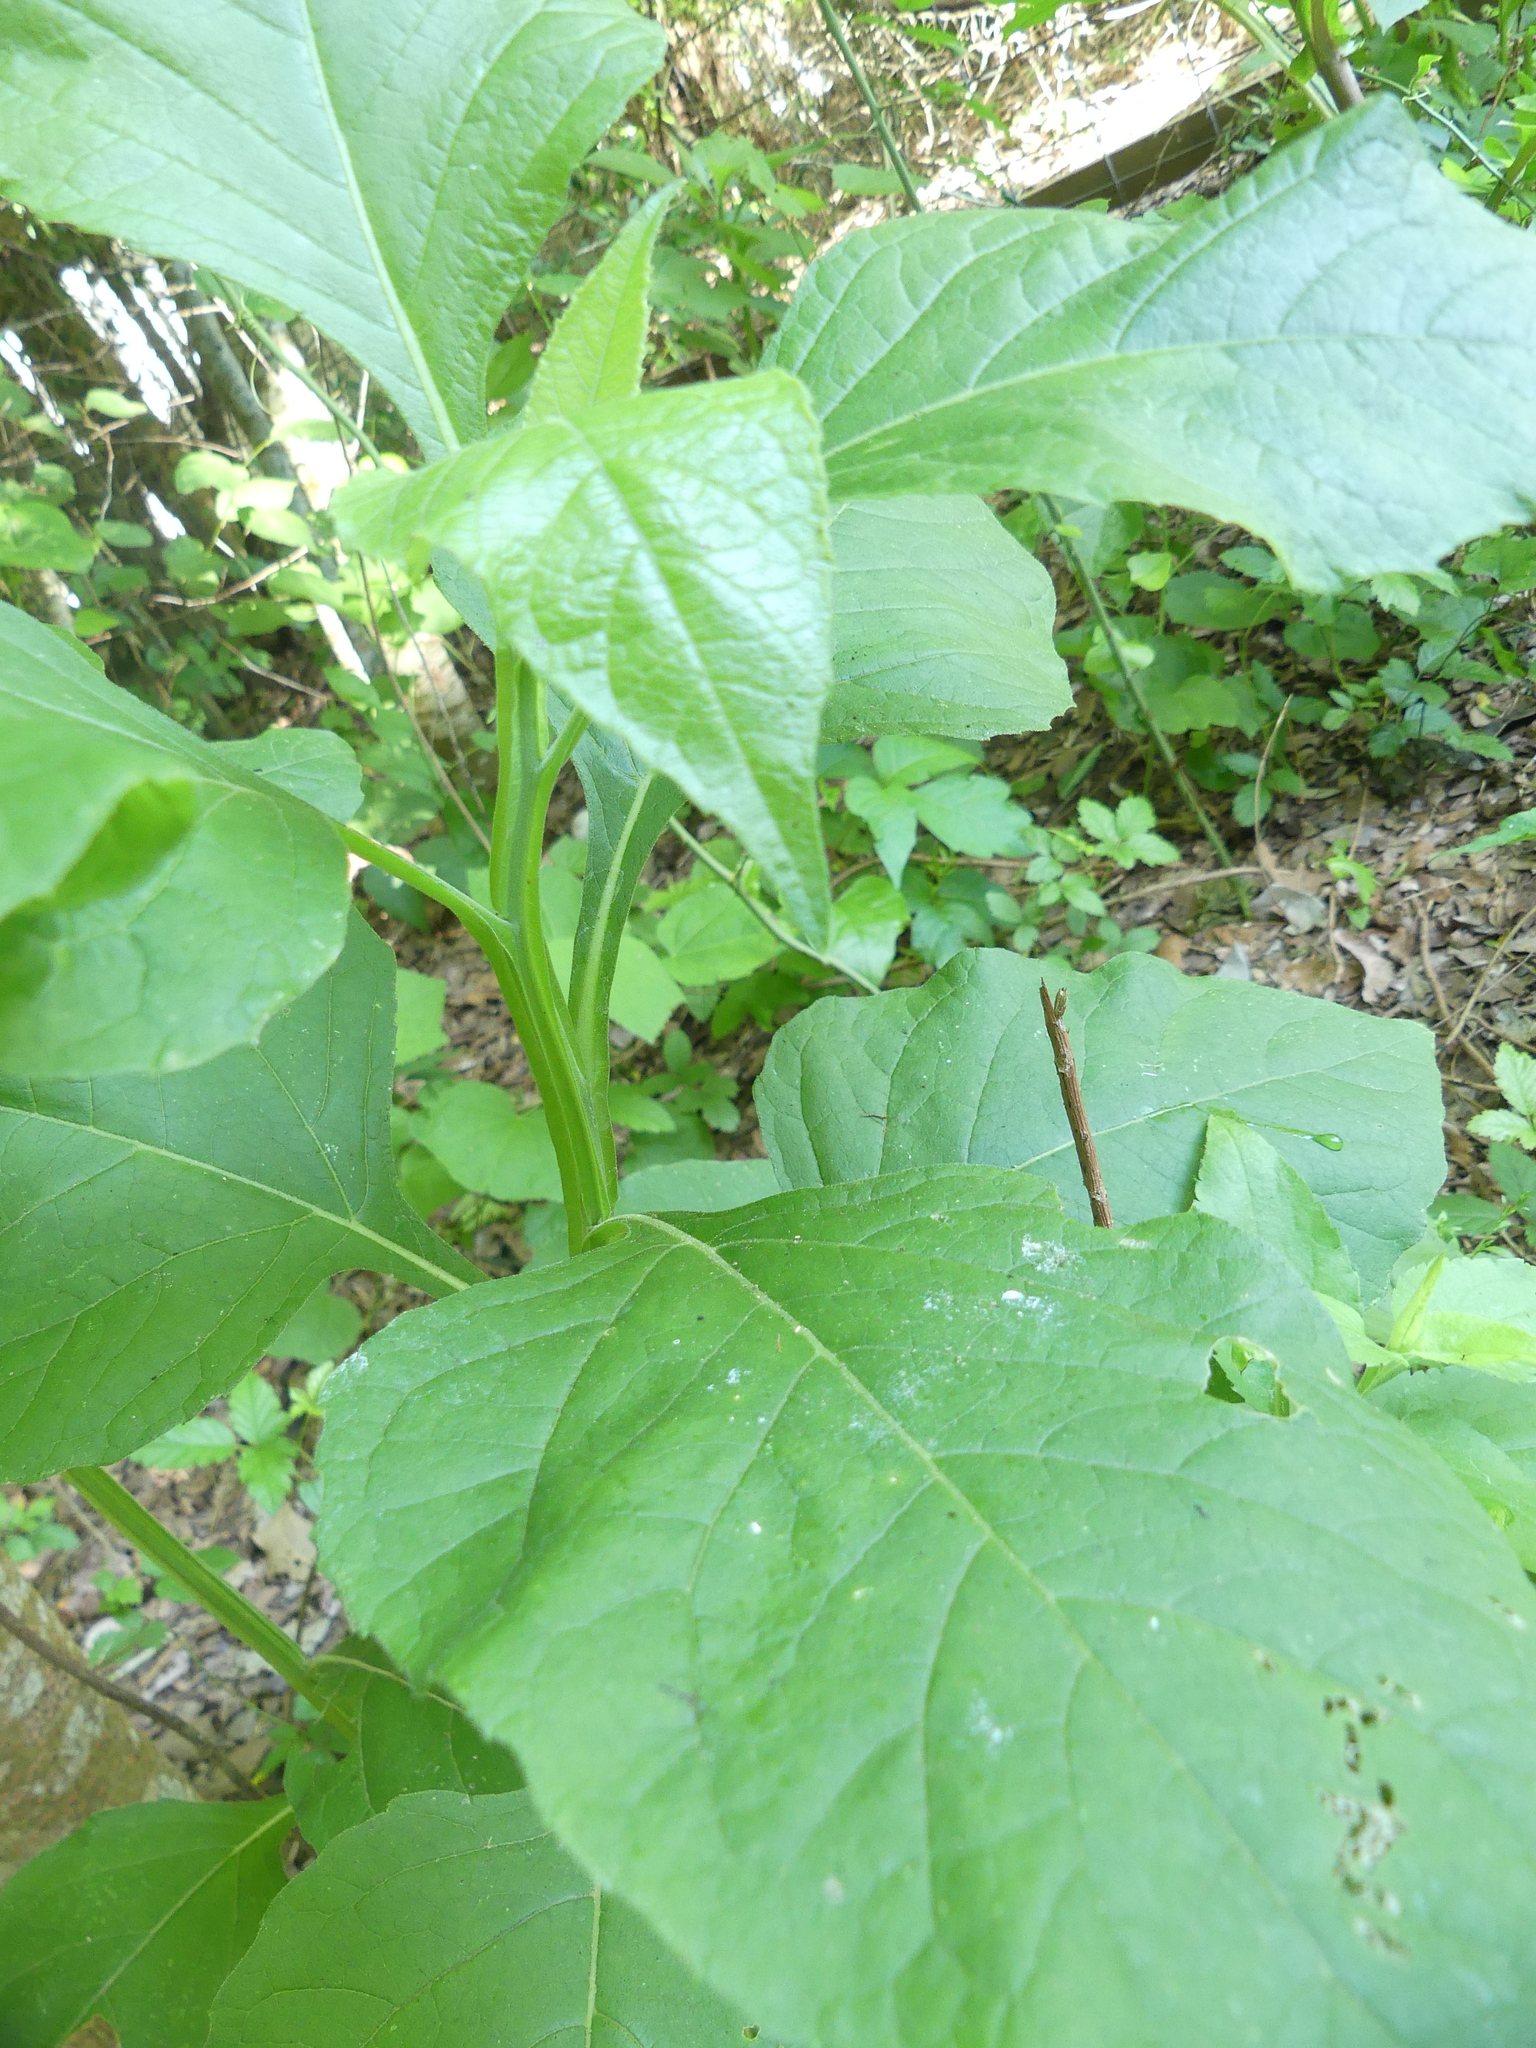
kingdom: Plantae
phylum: Tracheophyta
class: Magnoliopsida
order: Asterales
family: Asteraceae
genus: Verbesina
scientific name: Verbesina virginica
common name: Frostweed
